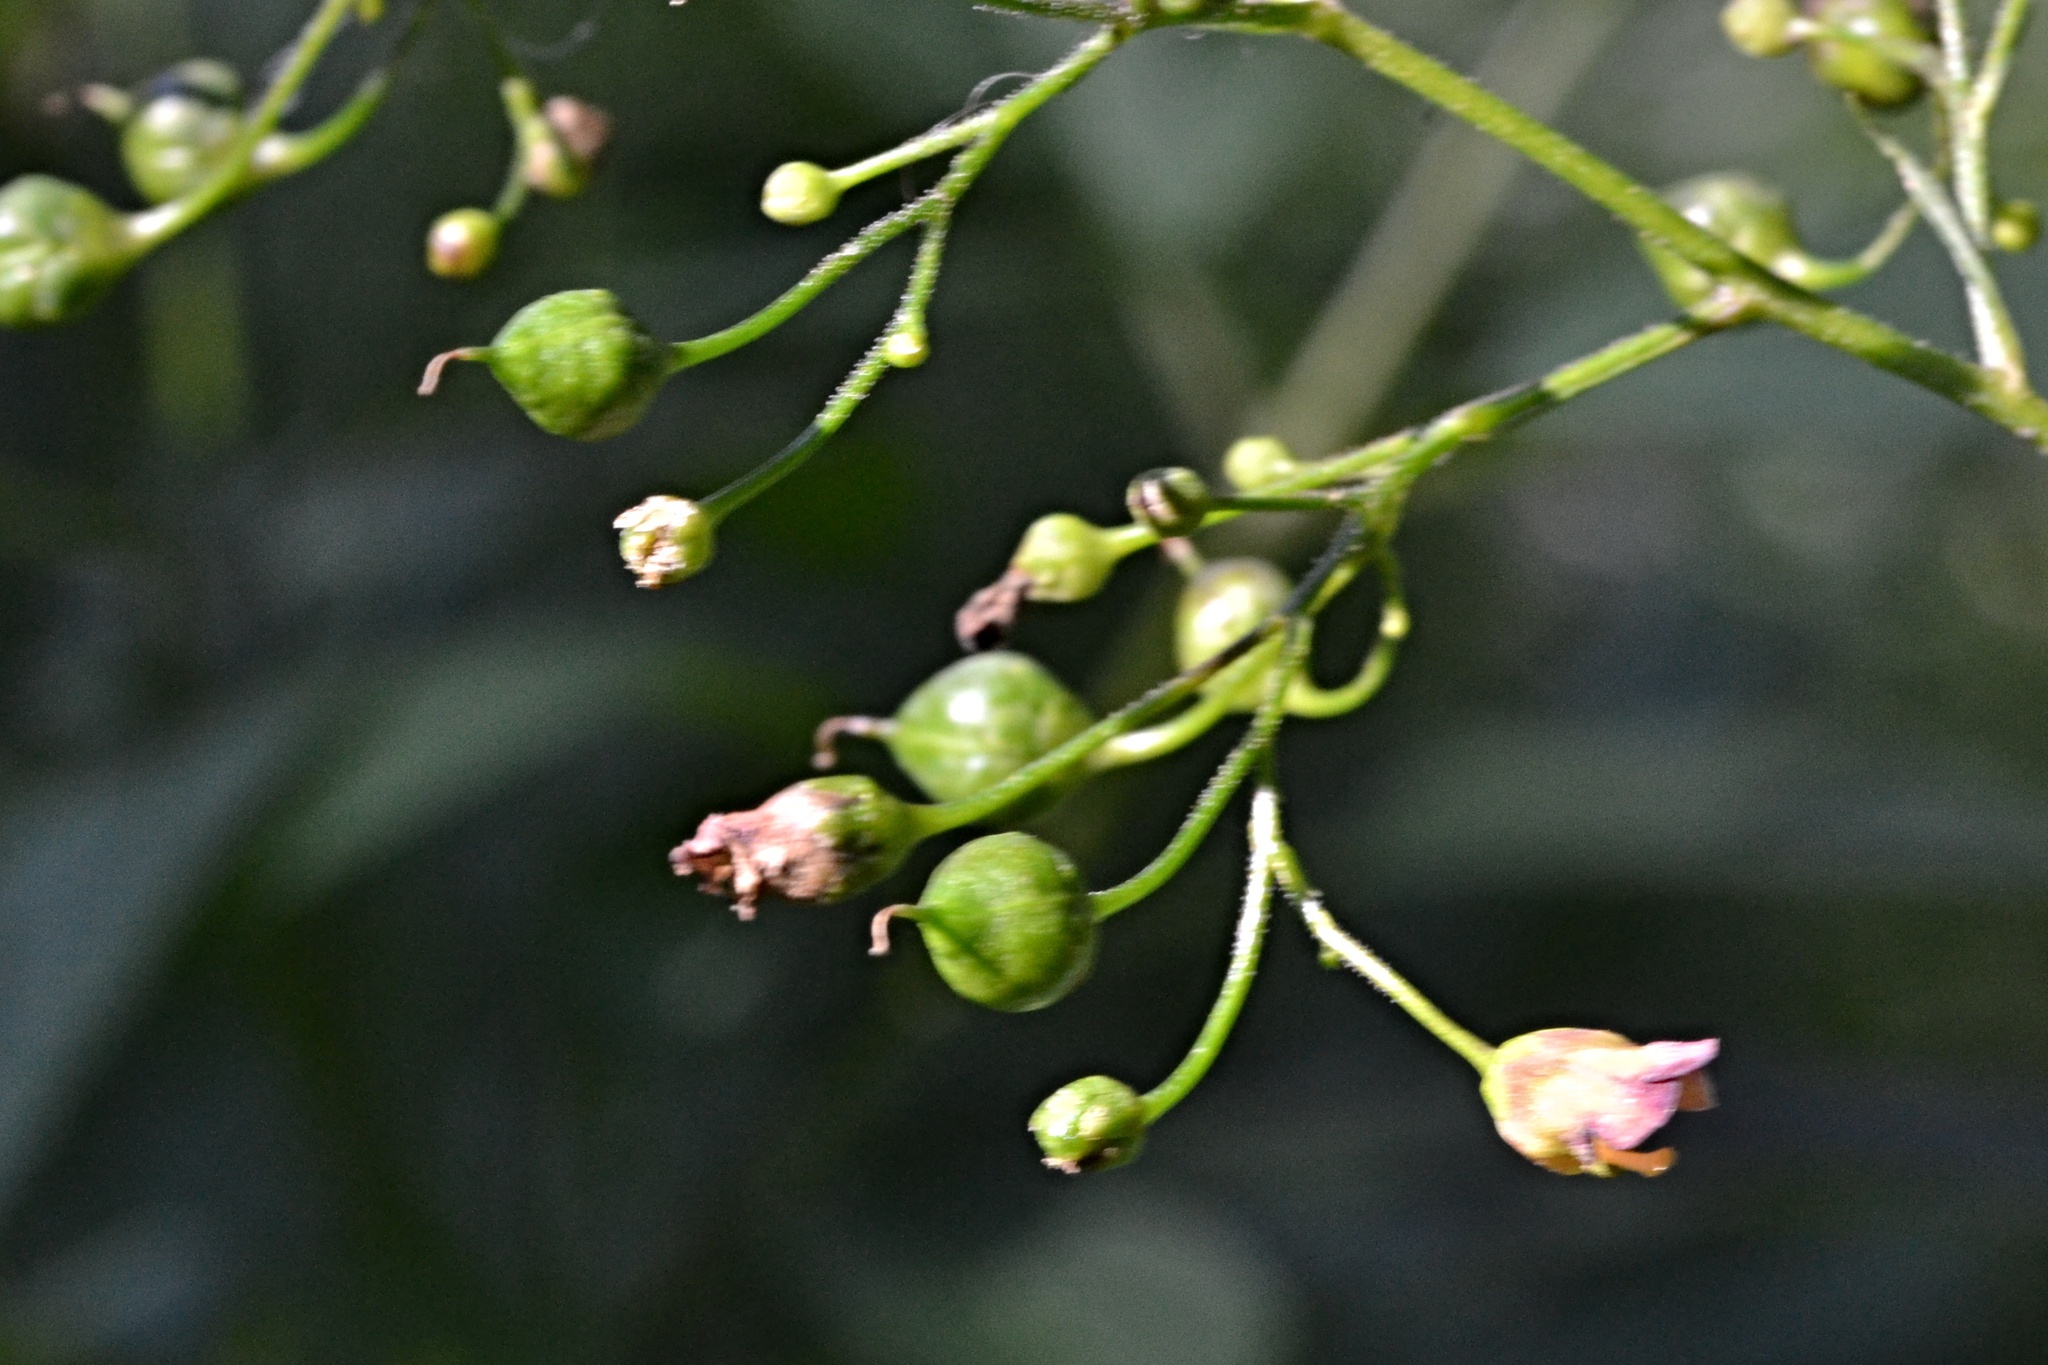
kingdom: Plantae
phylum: Tracheophyta
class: Magnoliopsida
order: Lamiales
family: Scrophulariaceae
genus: Scrophularia
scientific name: Scrophularia nodosa
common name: Common figwort
